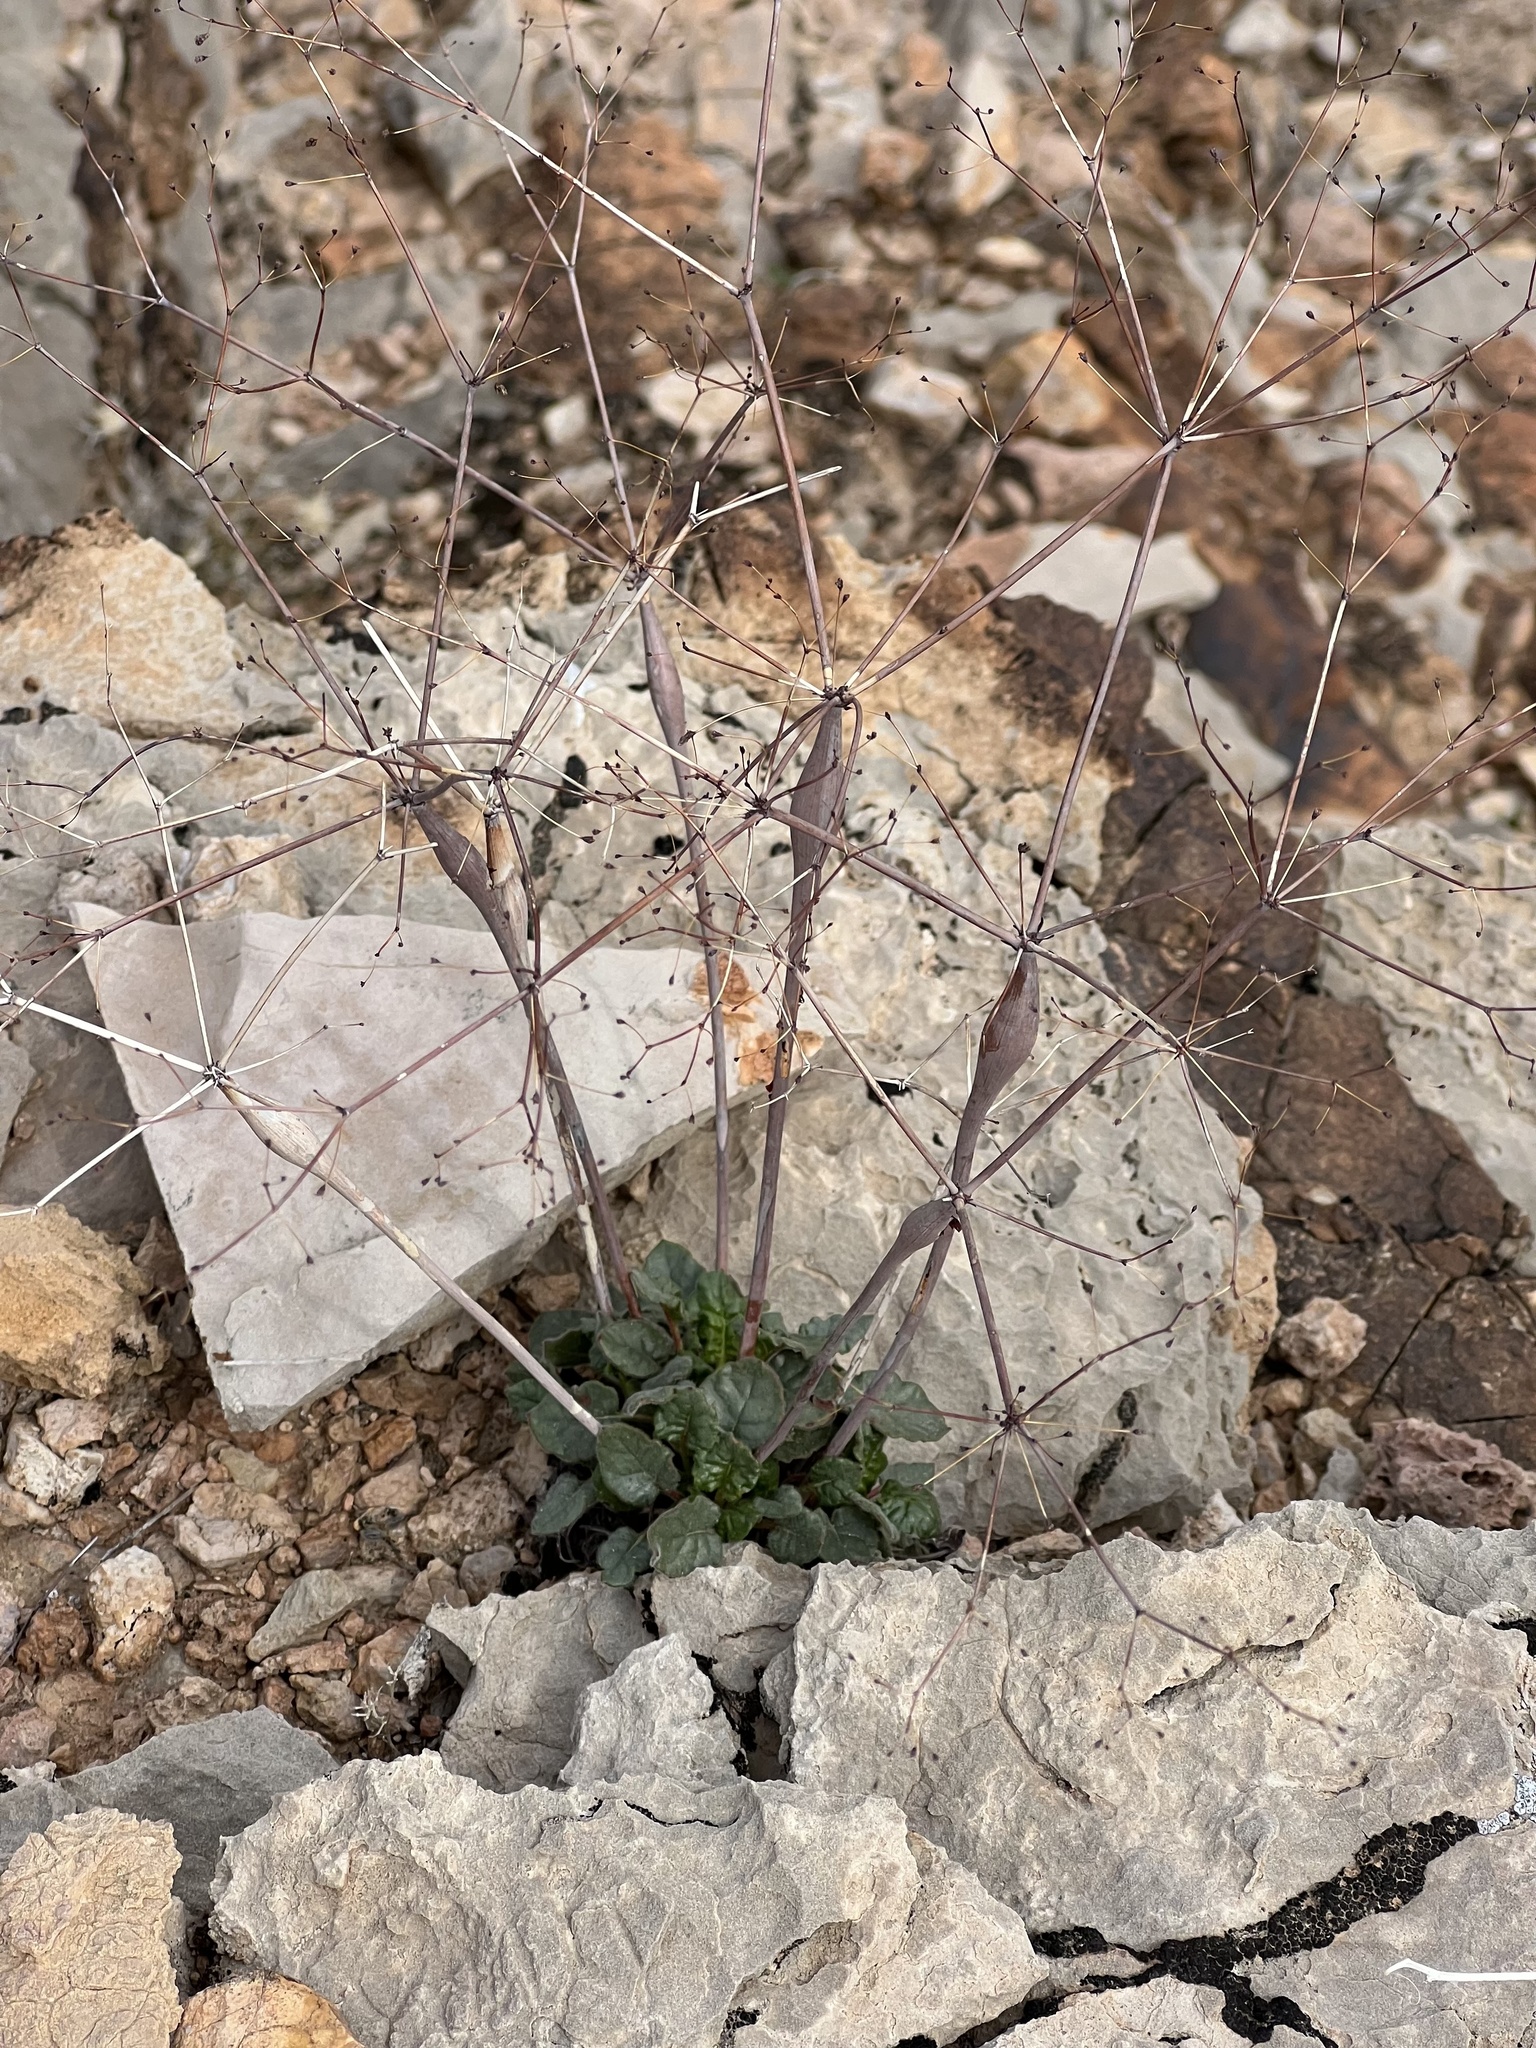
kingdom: Plantae
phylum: Tracheophyta
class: Magnoliopsida
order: Caryophyllales
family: Polygonaceae
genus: Eriogonum
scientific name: Eriogonum inflatum
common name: Desert trumpet
